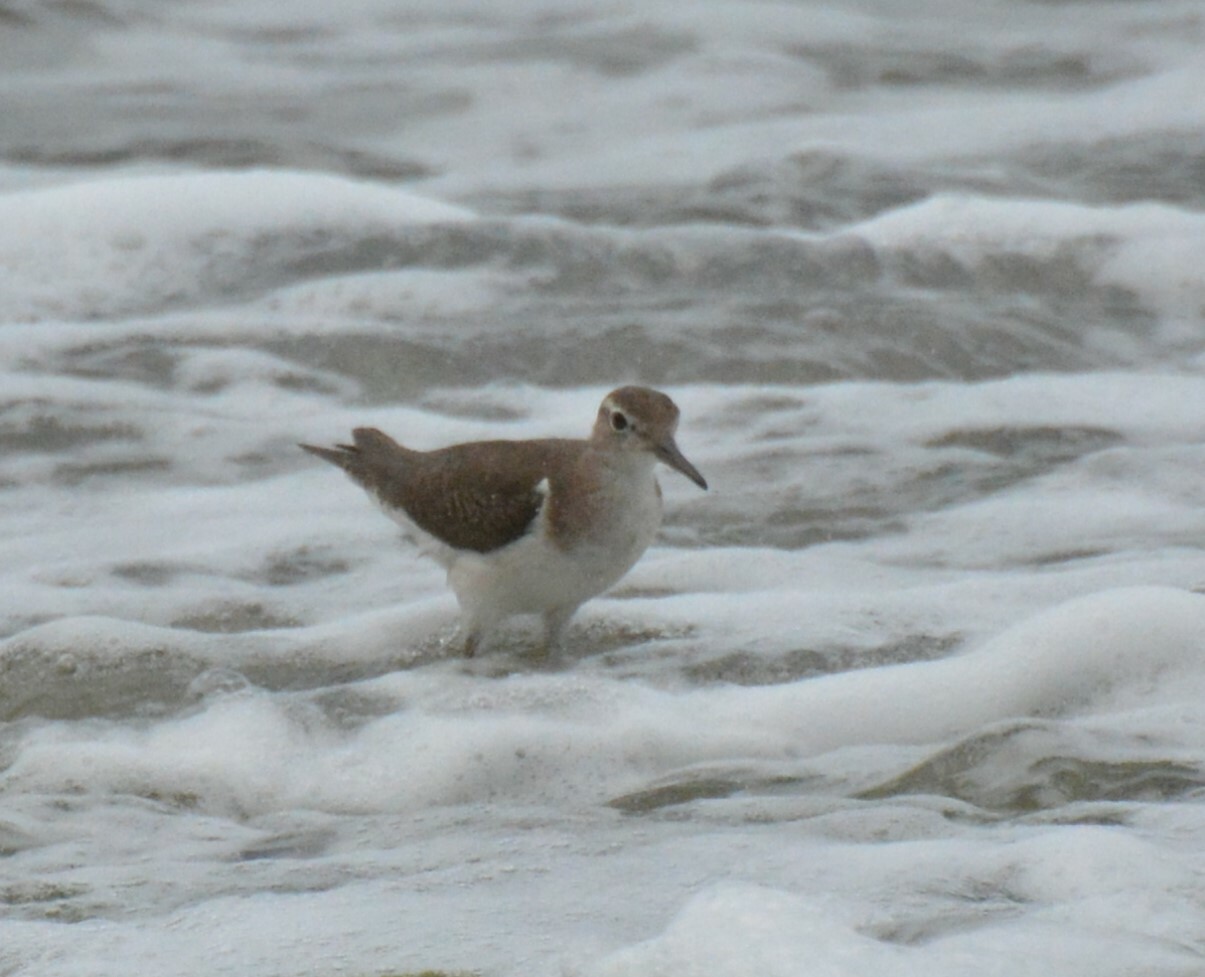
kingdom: Animalia
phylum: Chordata
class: Aves
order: Charadriiformes
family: Scolopacidae
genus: Actitis
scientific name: Actitis macularius
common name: Spotted sandpiper
